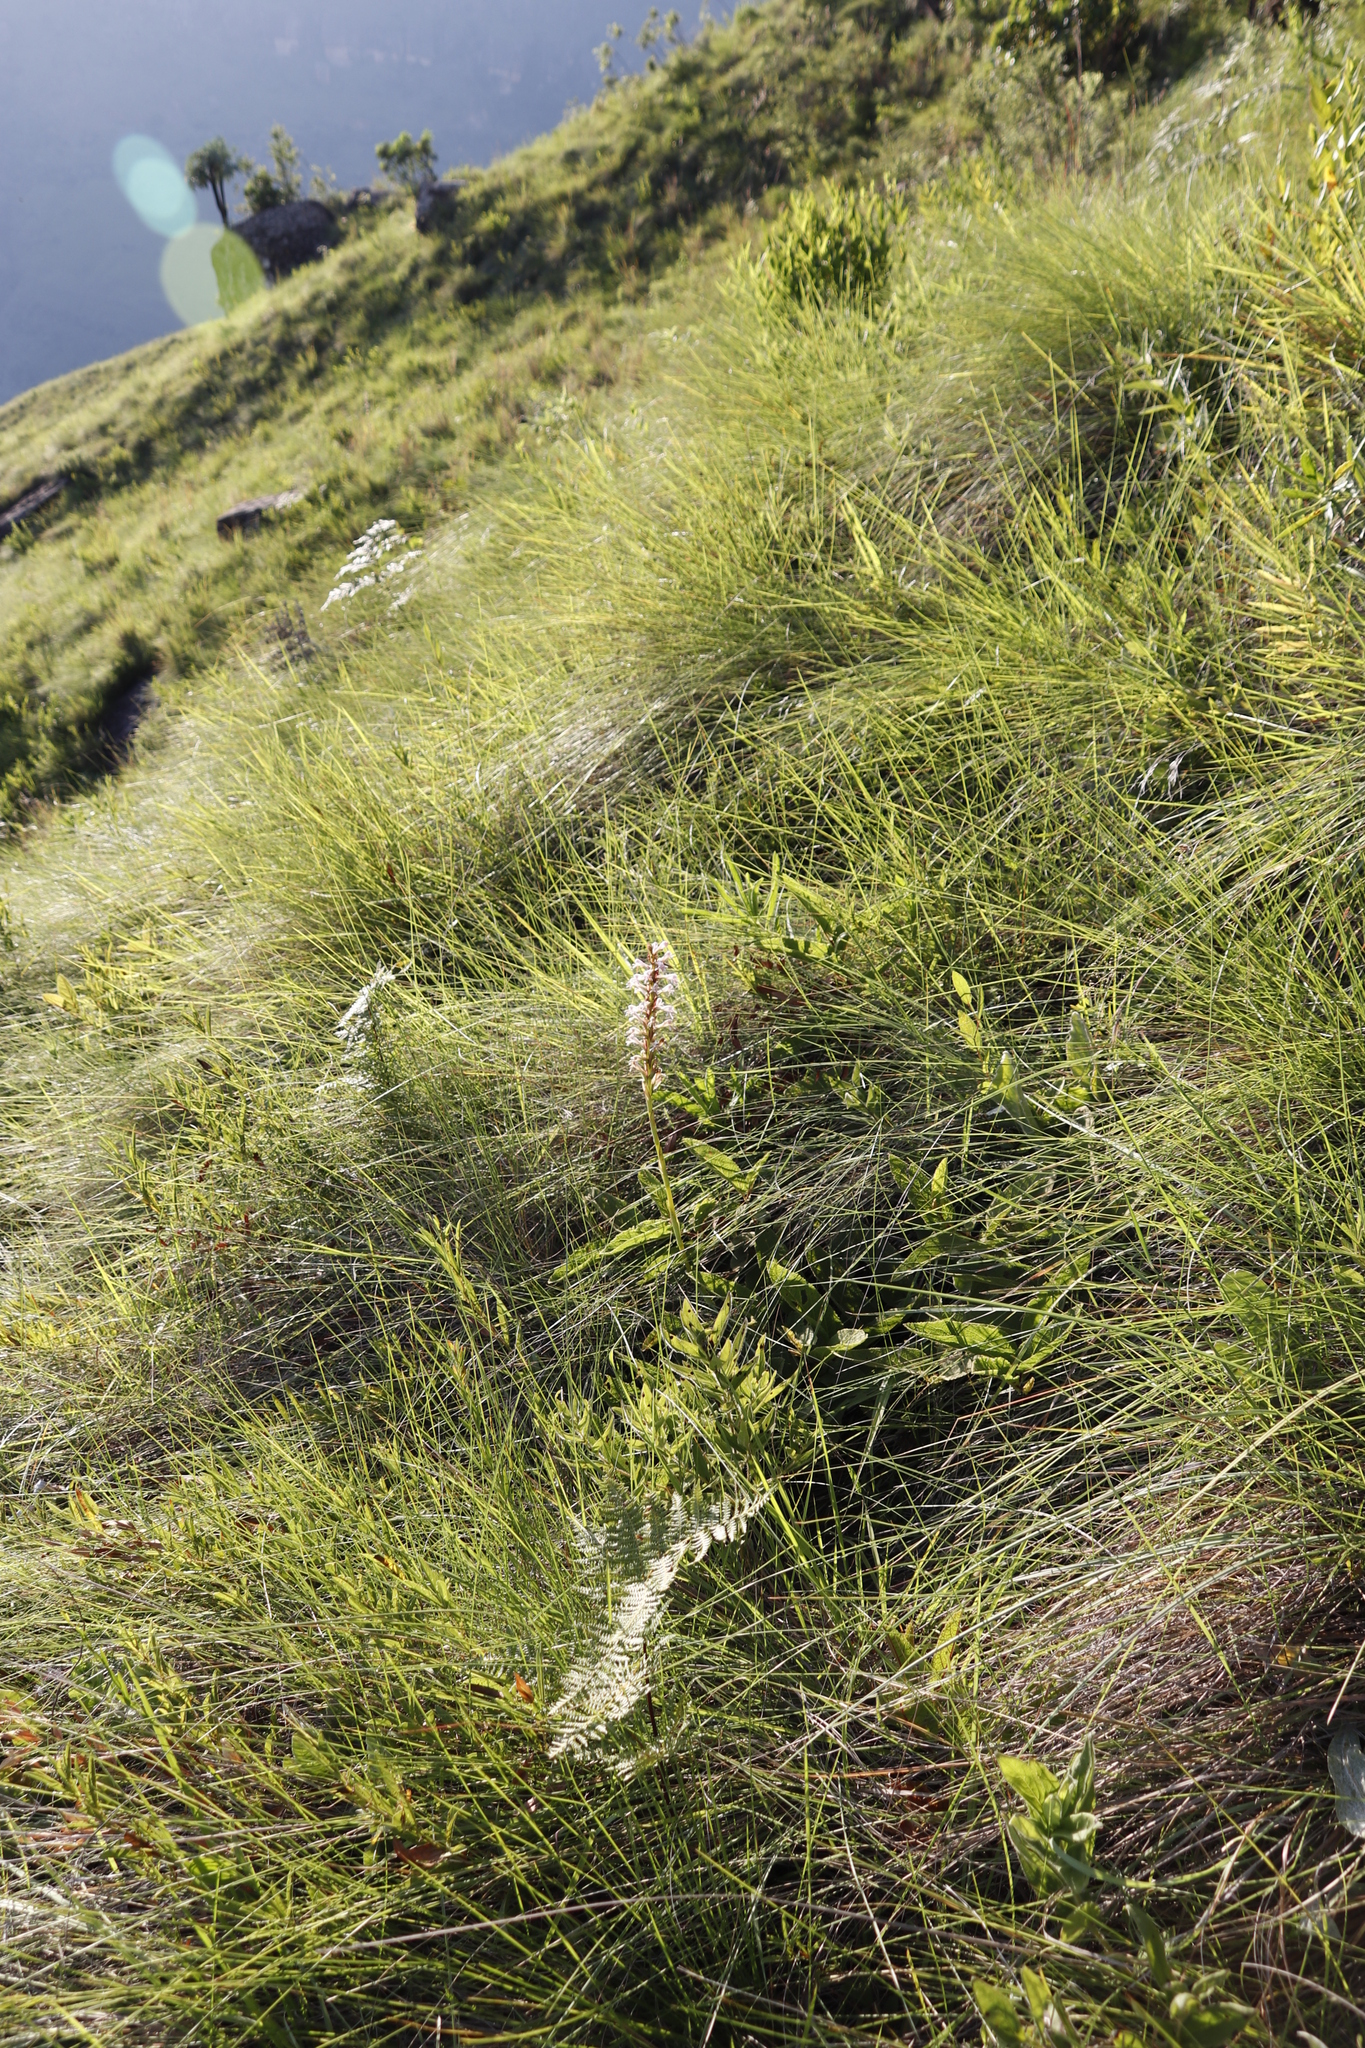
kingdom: Plantae
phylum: Tracheophyta
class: Liliopsida
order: Asparagales
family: Orchidaceae
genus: Satyrium
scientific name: Satyrium cristatum
